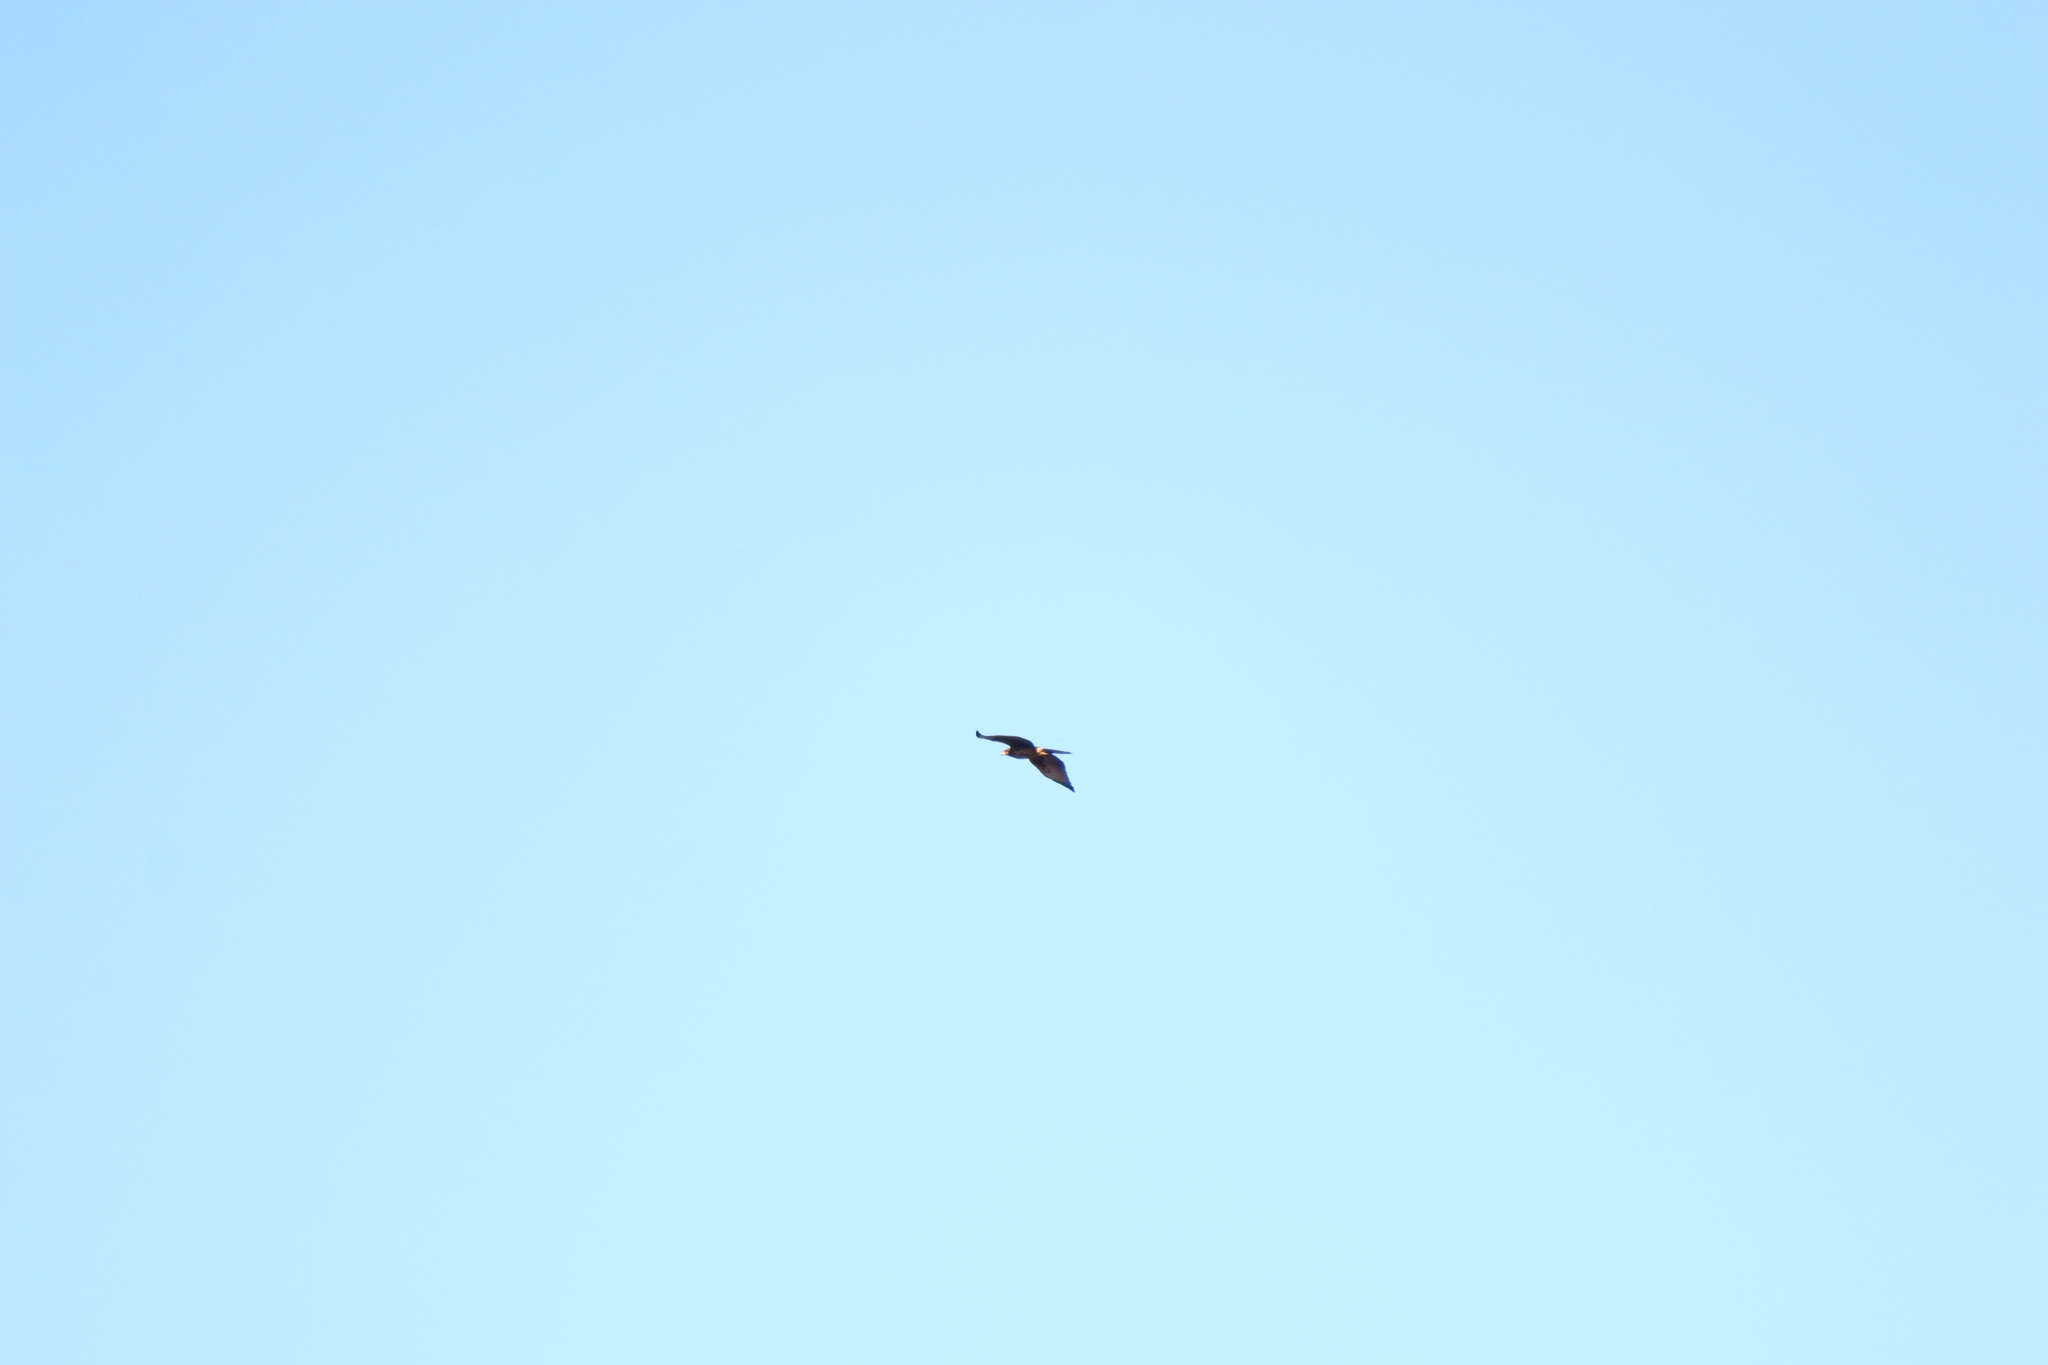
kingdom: Animalia
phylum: Chordata
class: Aves
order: Accipitriformes
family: Accipitridae
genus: Parabuteo
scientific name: Parabuteo unicinctus
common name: Harris's hawk
